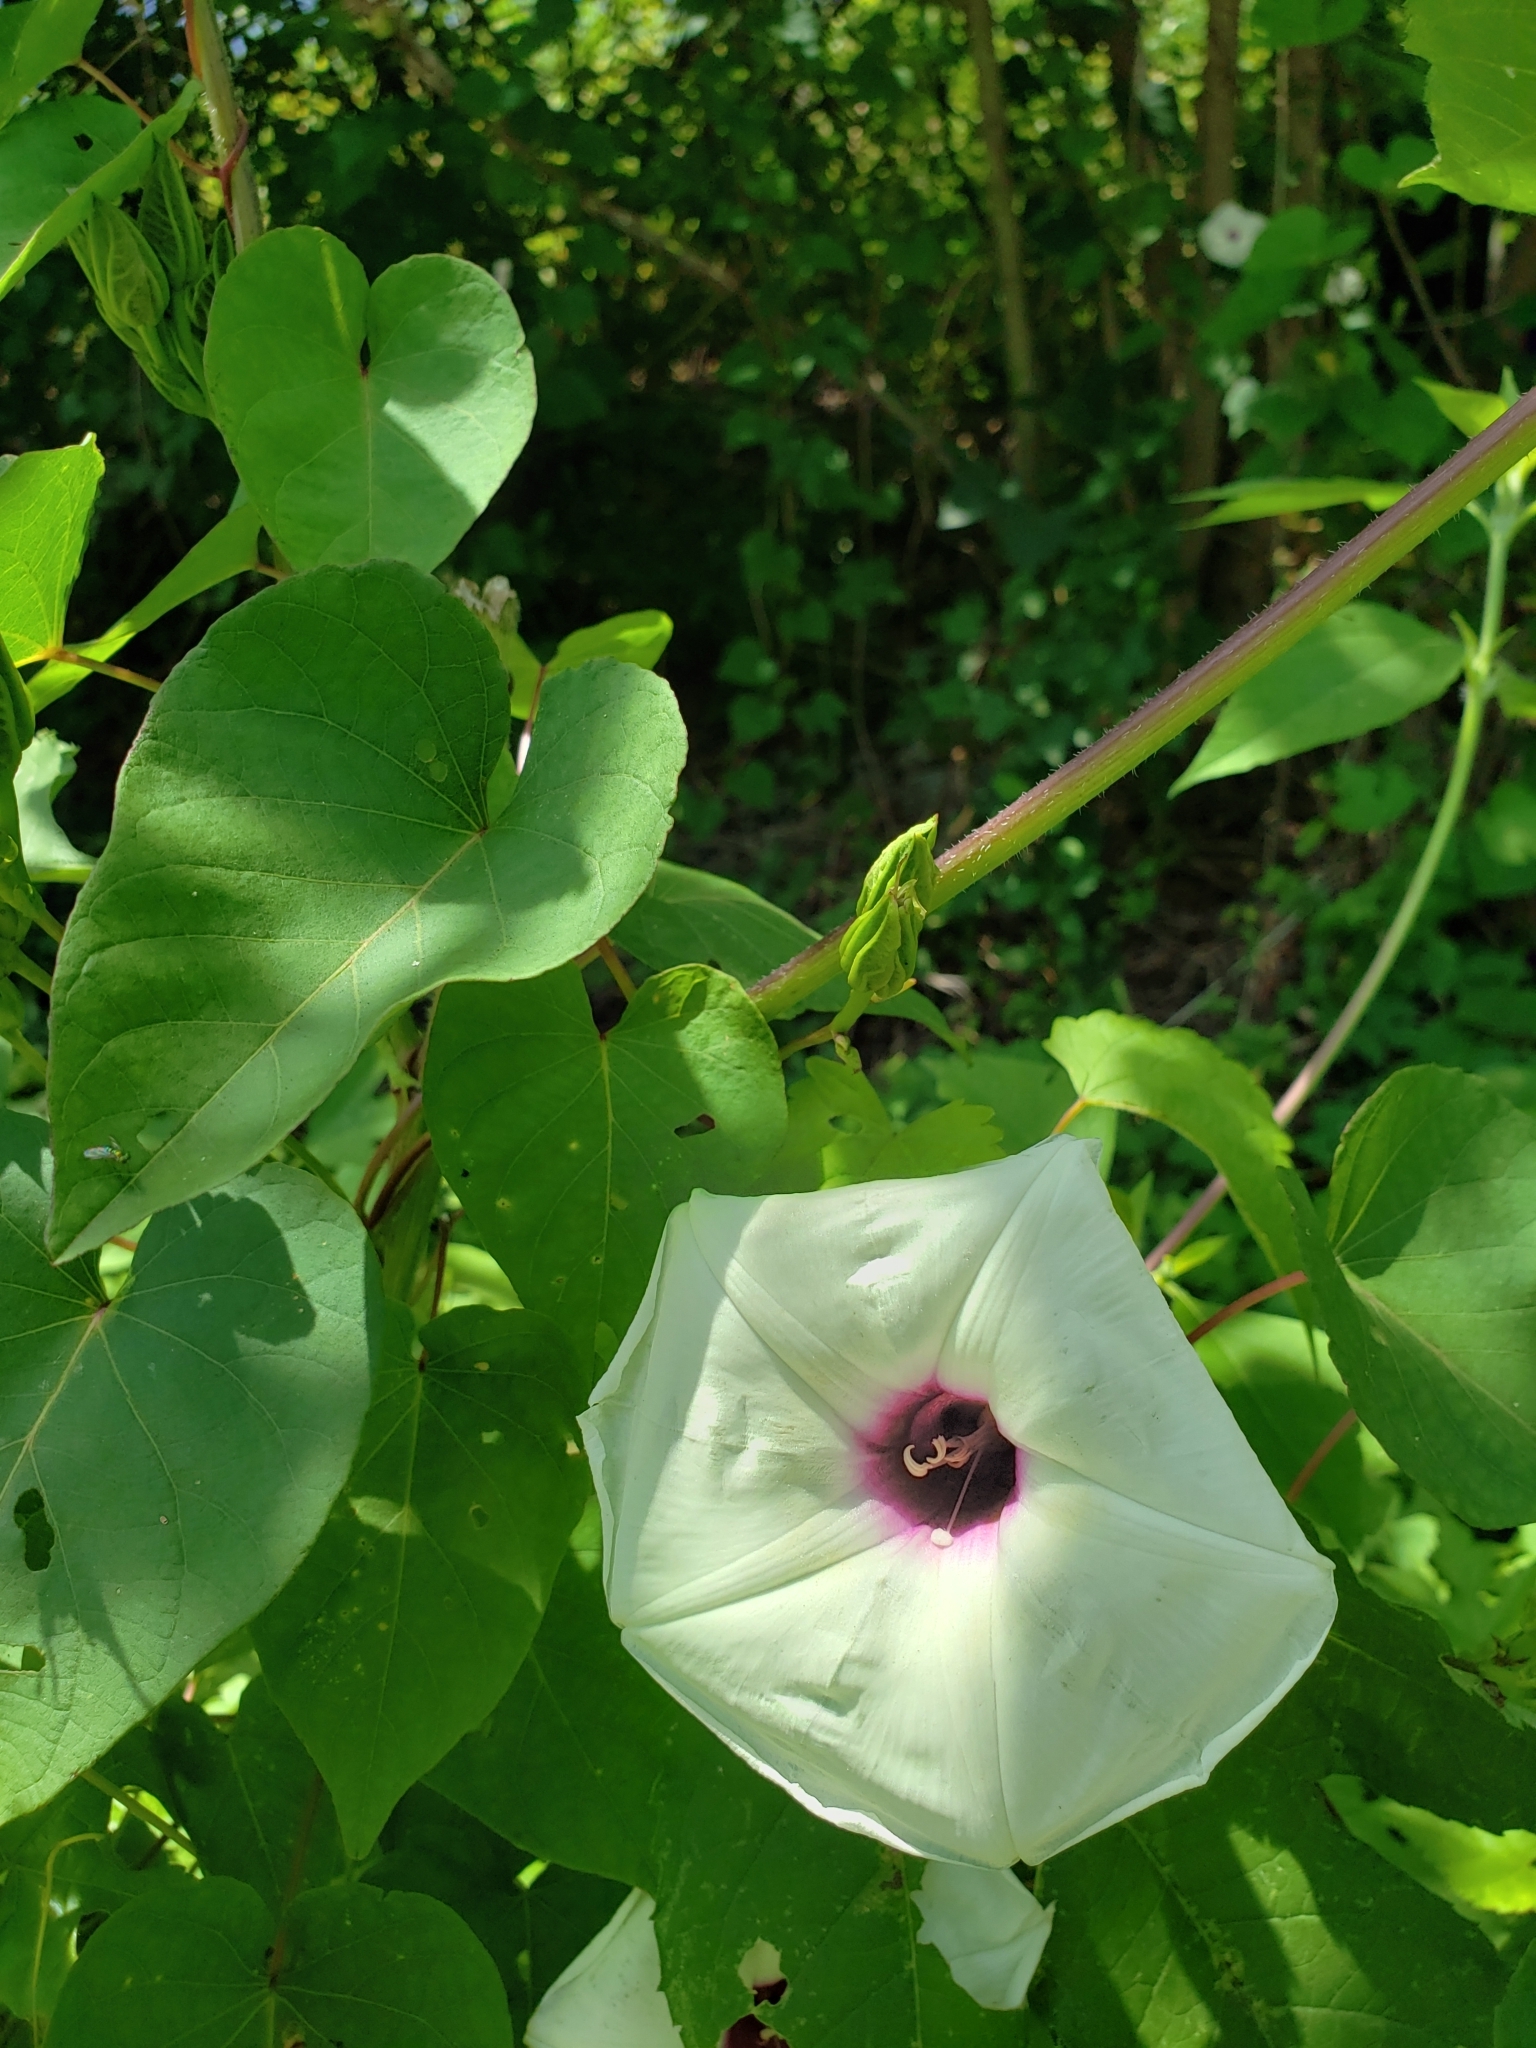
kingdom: Plantae
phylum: Tracheophyta
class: Magnoliopsida
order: Solanales
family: Convolvulaceae
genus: Ipomoea
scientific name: Ipomoea pandurata
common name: Man-of-the-earth
